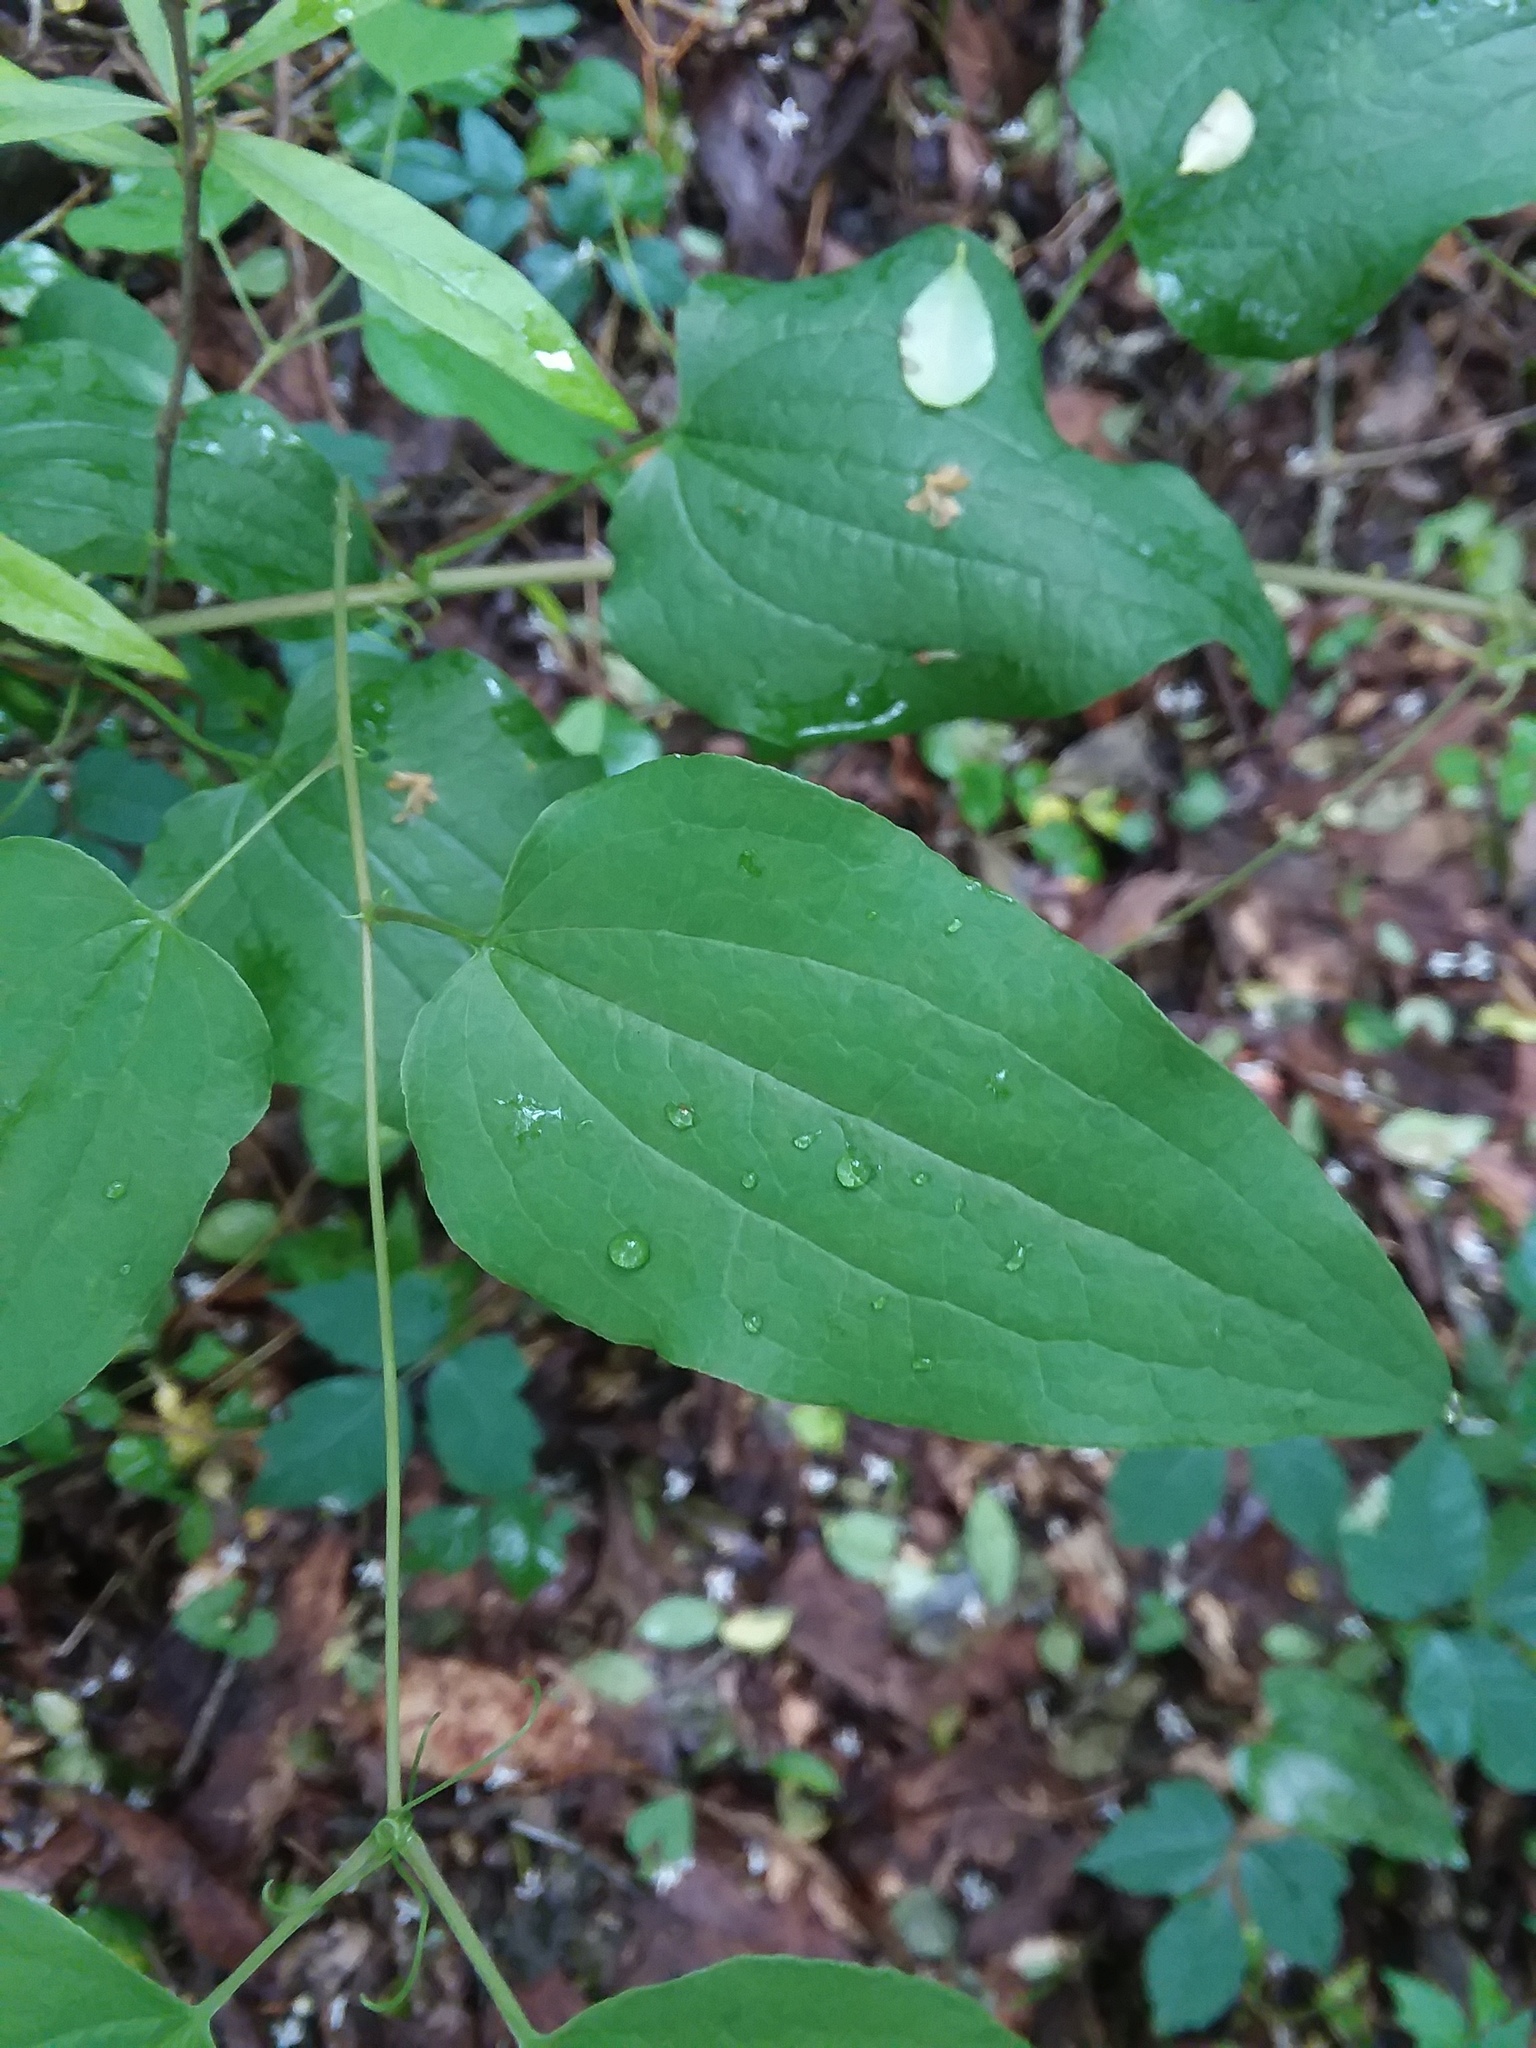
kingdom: Plantae
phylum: Tracheophyta
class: Liliopsida
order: Liliales
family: Smilacaceae
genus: Smilax
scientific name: Smilax lasioneura
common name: Blue ridge carrionflower
